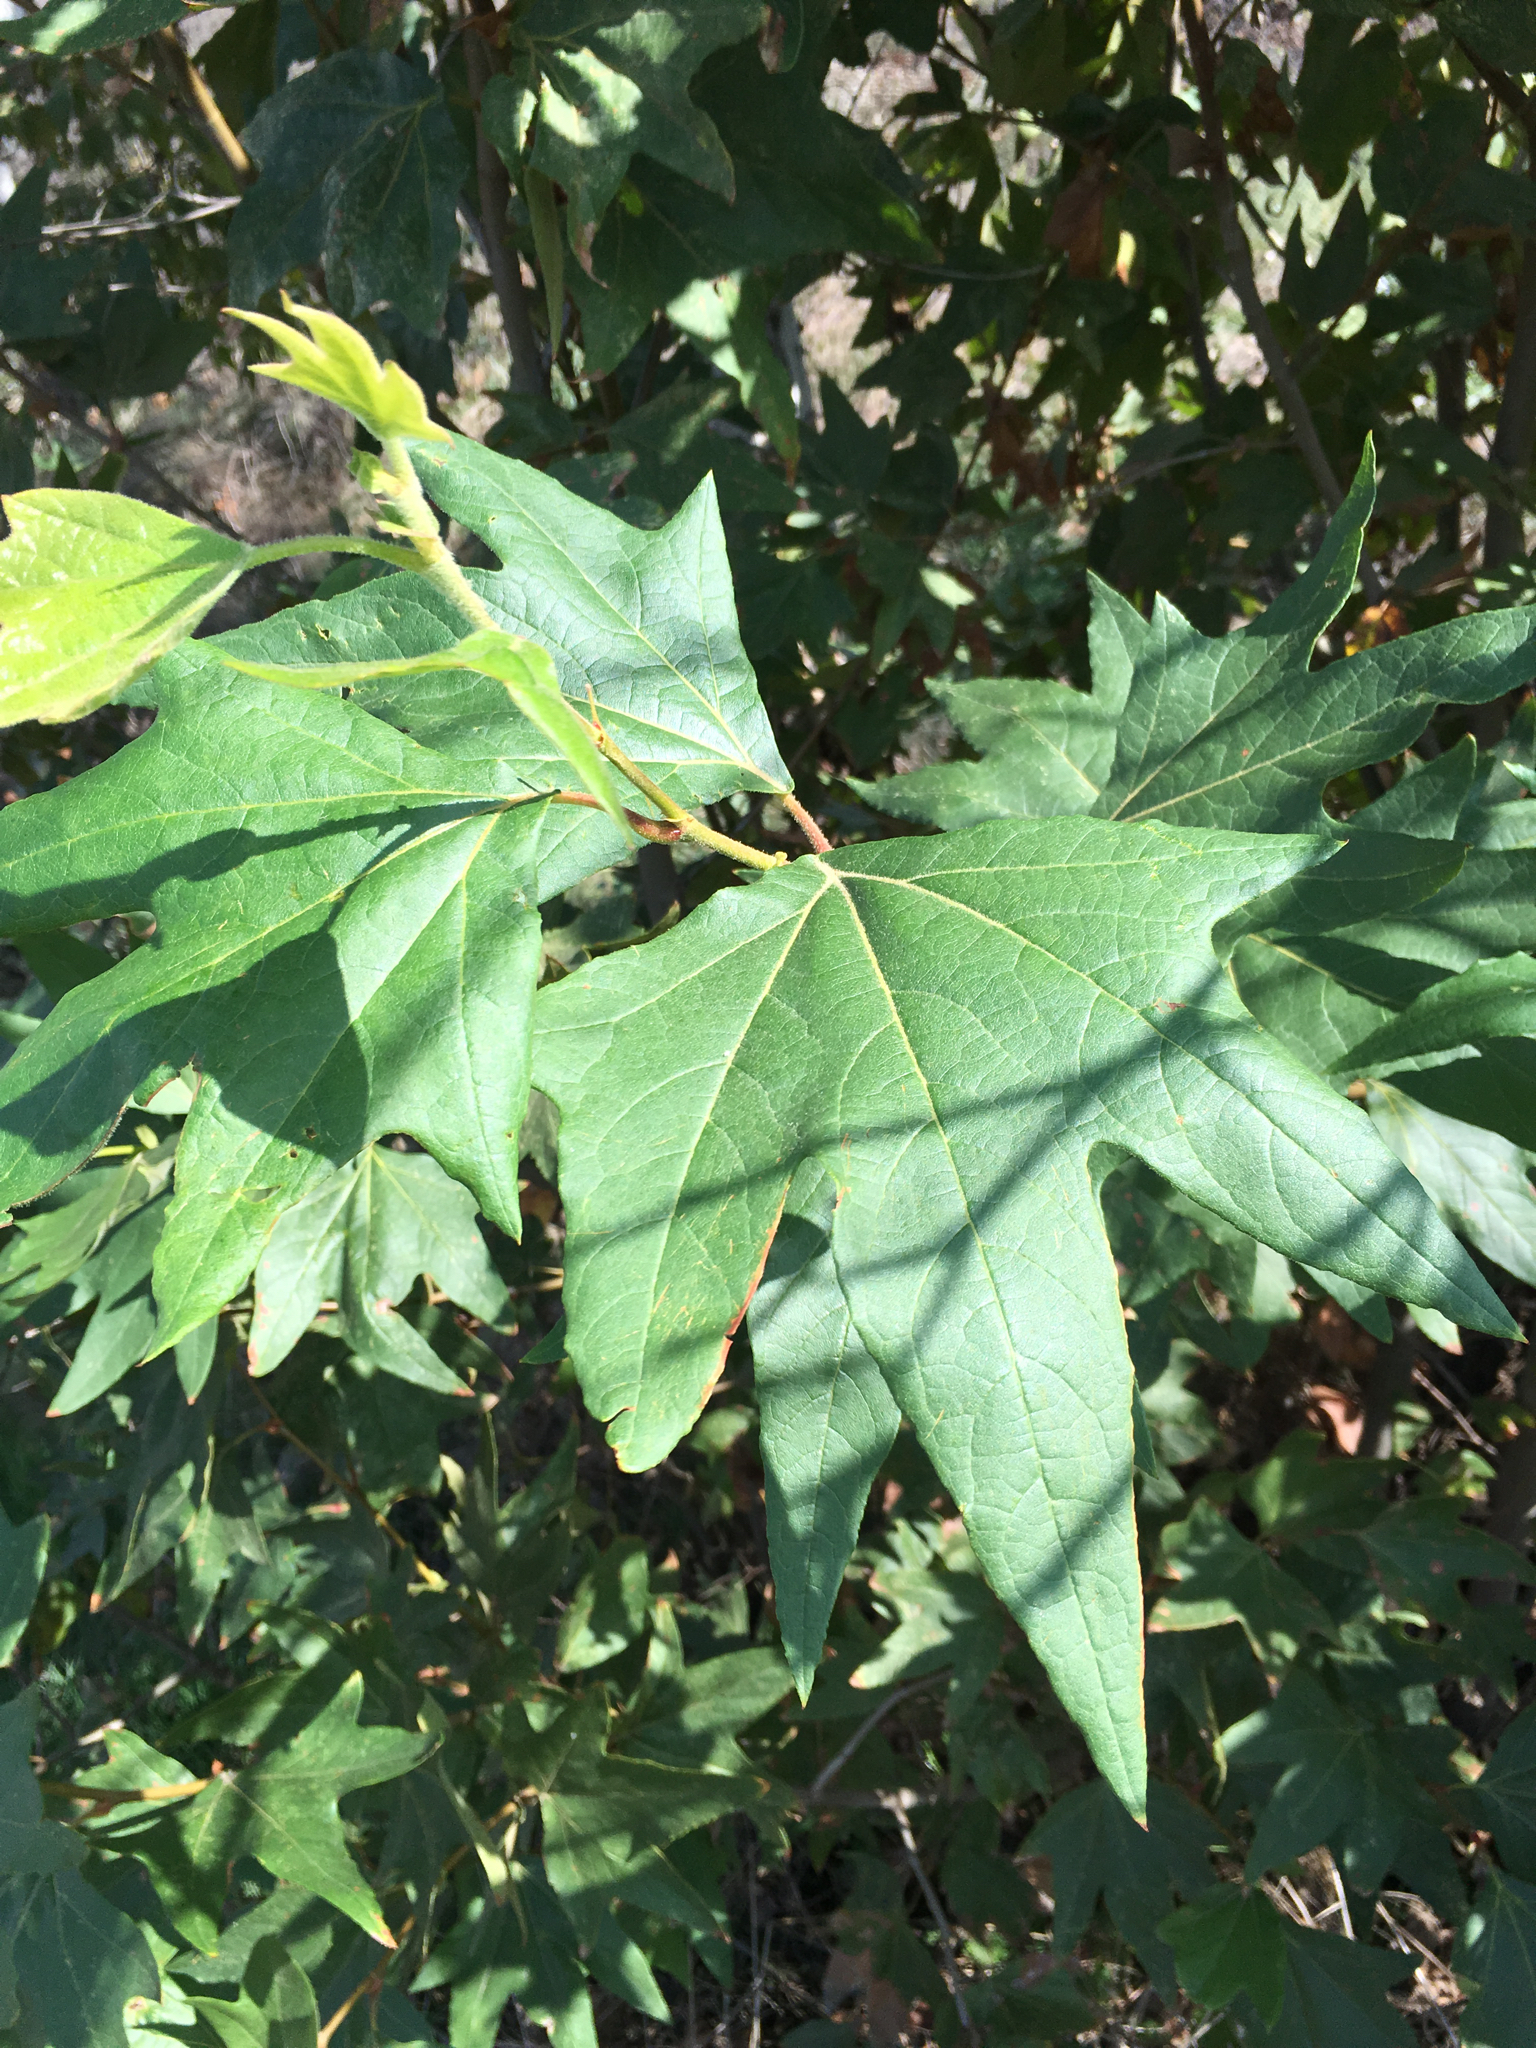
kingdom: Plantae
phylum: Tracheophyta
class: Magnoliopsida
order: Proteales
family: Platanaceae
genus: Platanus
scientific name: Platanus racemosa
